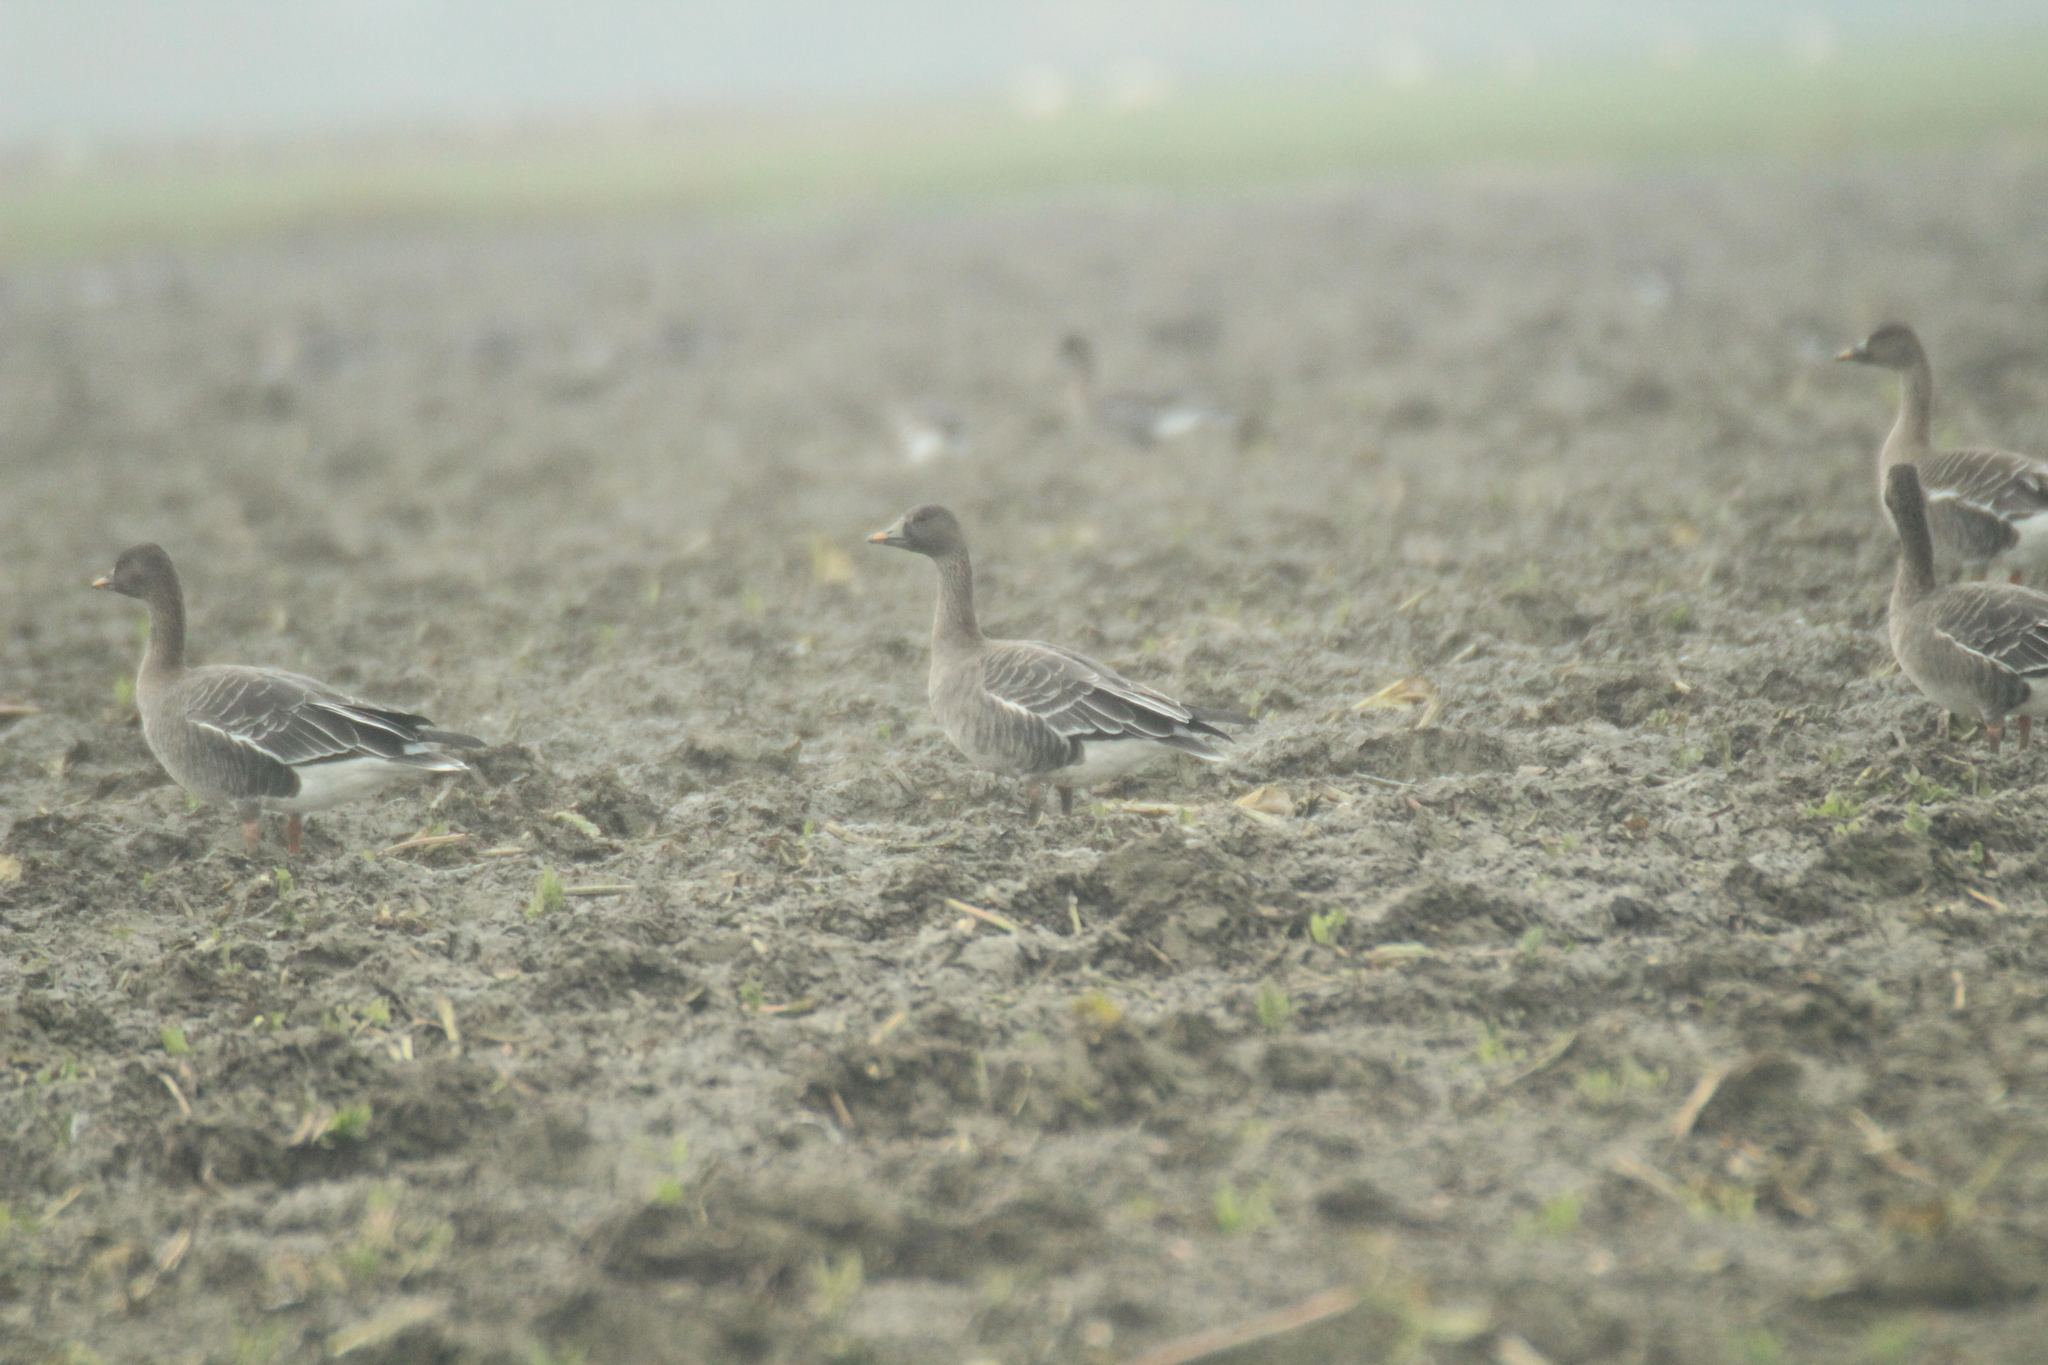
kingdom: Animalia
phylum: Chordata
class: Aves
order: Anseriformes
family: Anatidae
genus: Anser
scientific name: Anser serrirostris
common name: Tundra bean goose
